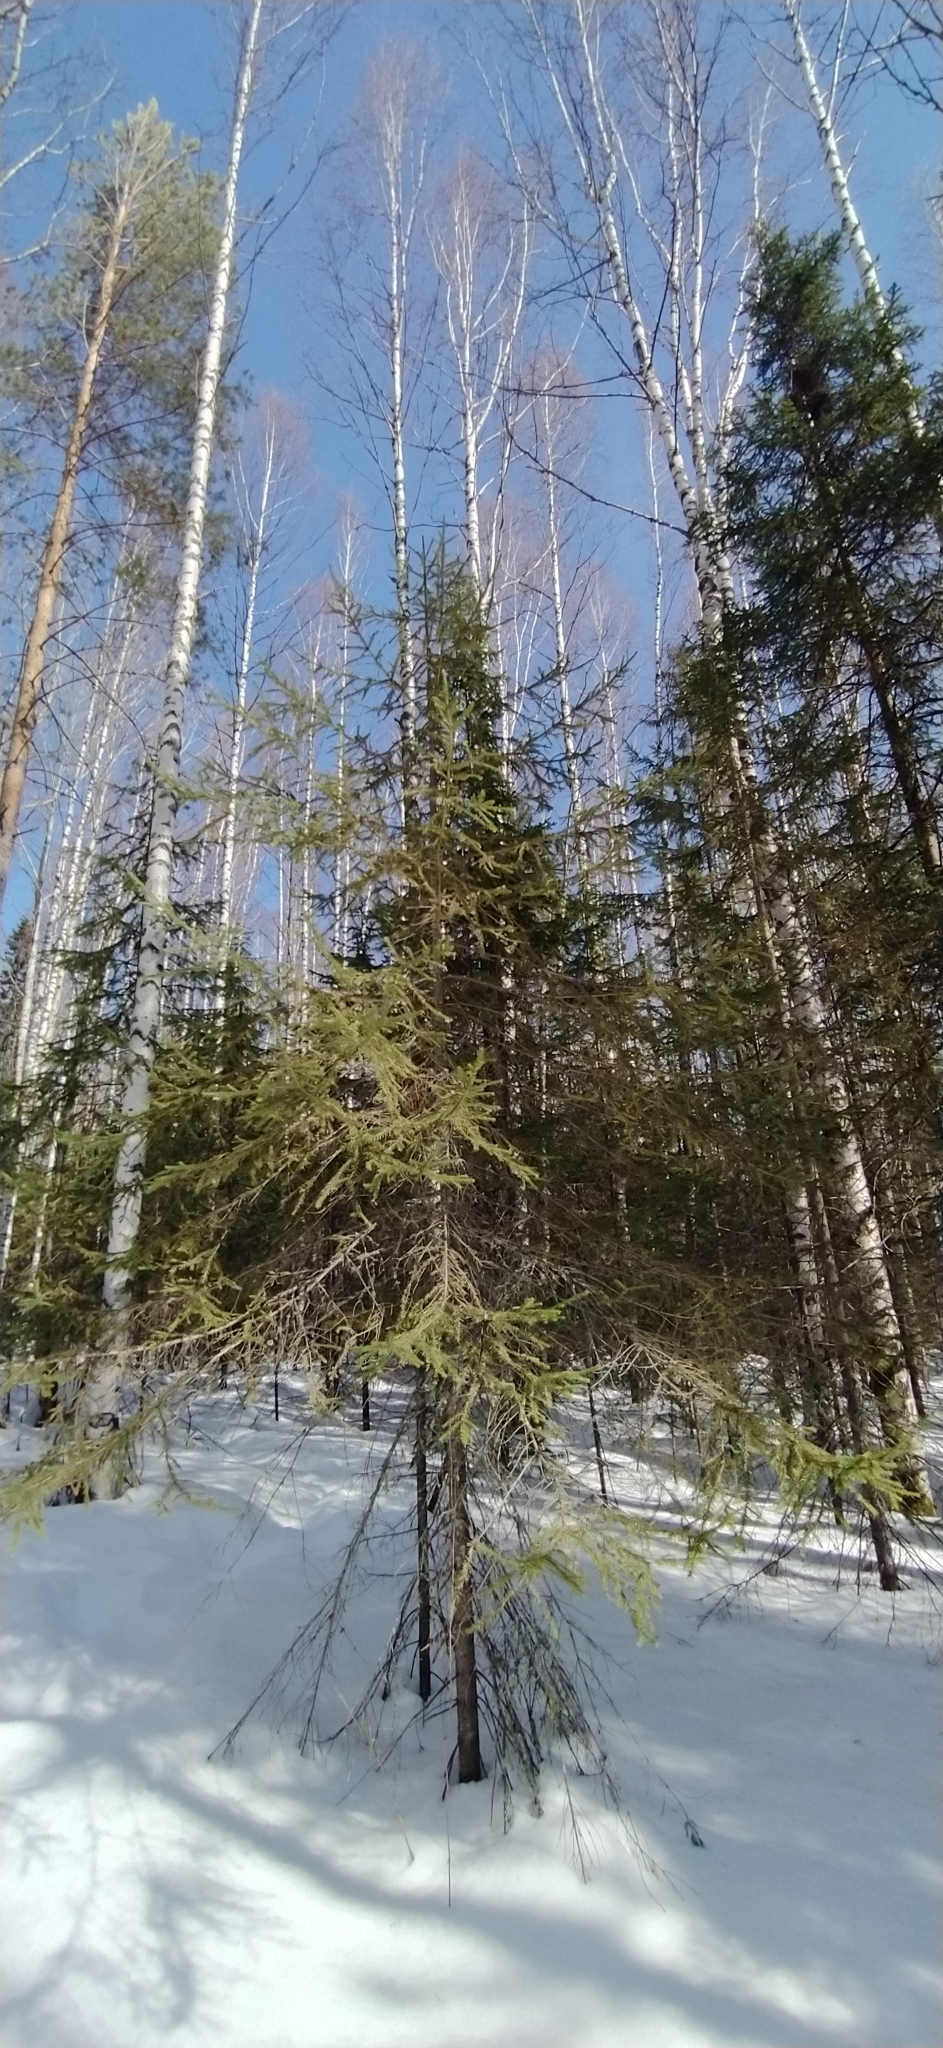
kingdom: Plantae
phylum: Tracheophyta
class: Pinopsida
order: Pinales
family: Pinaceae
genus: Abies
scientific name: Abies sibirica
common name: Siberian fir
